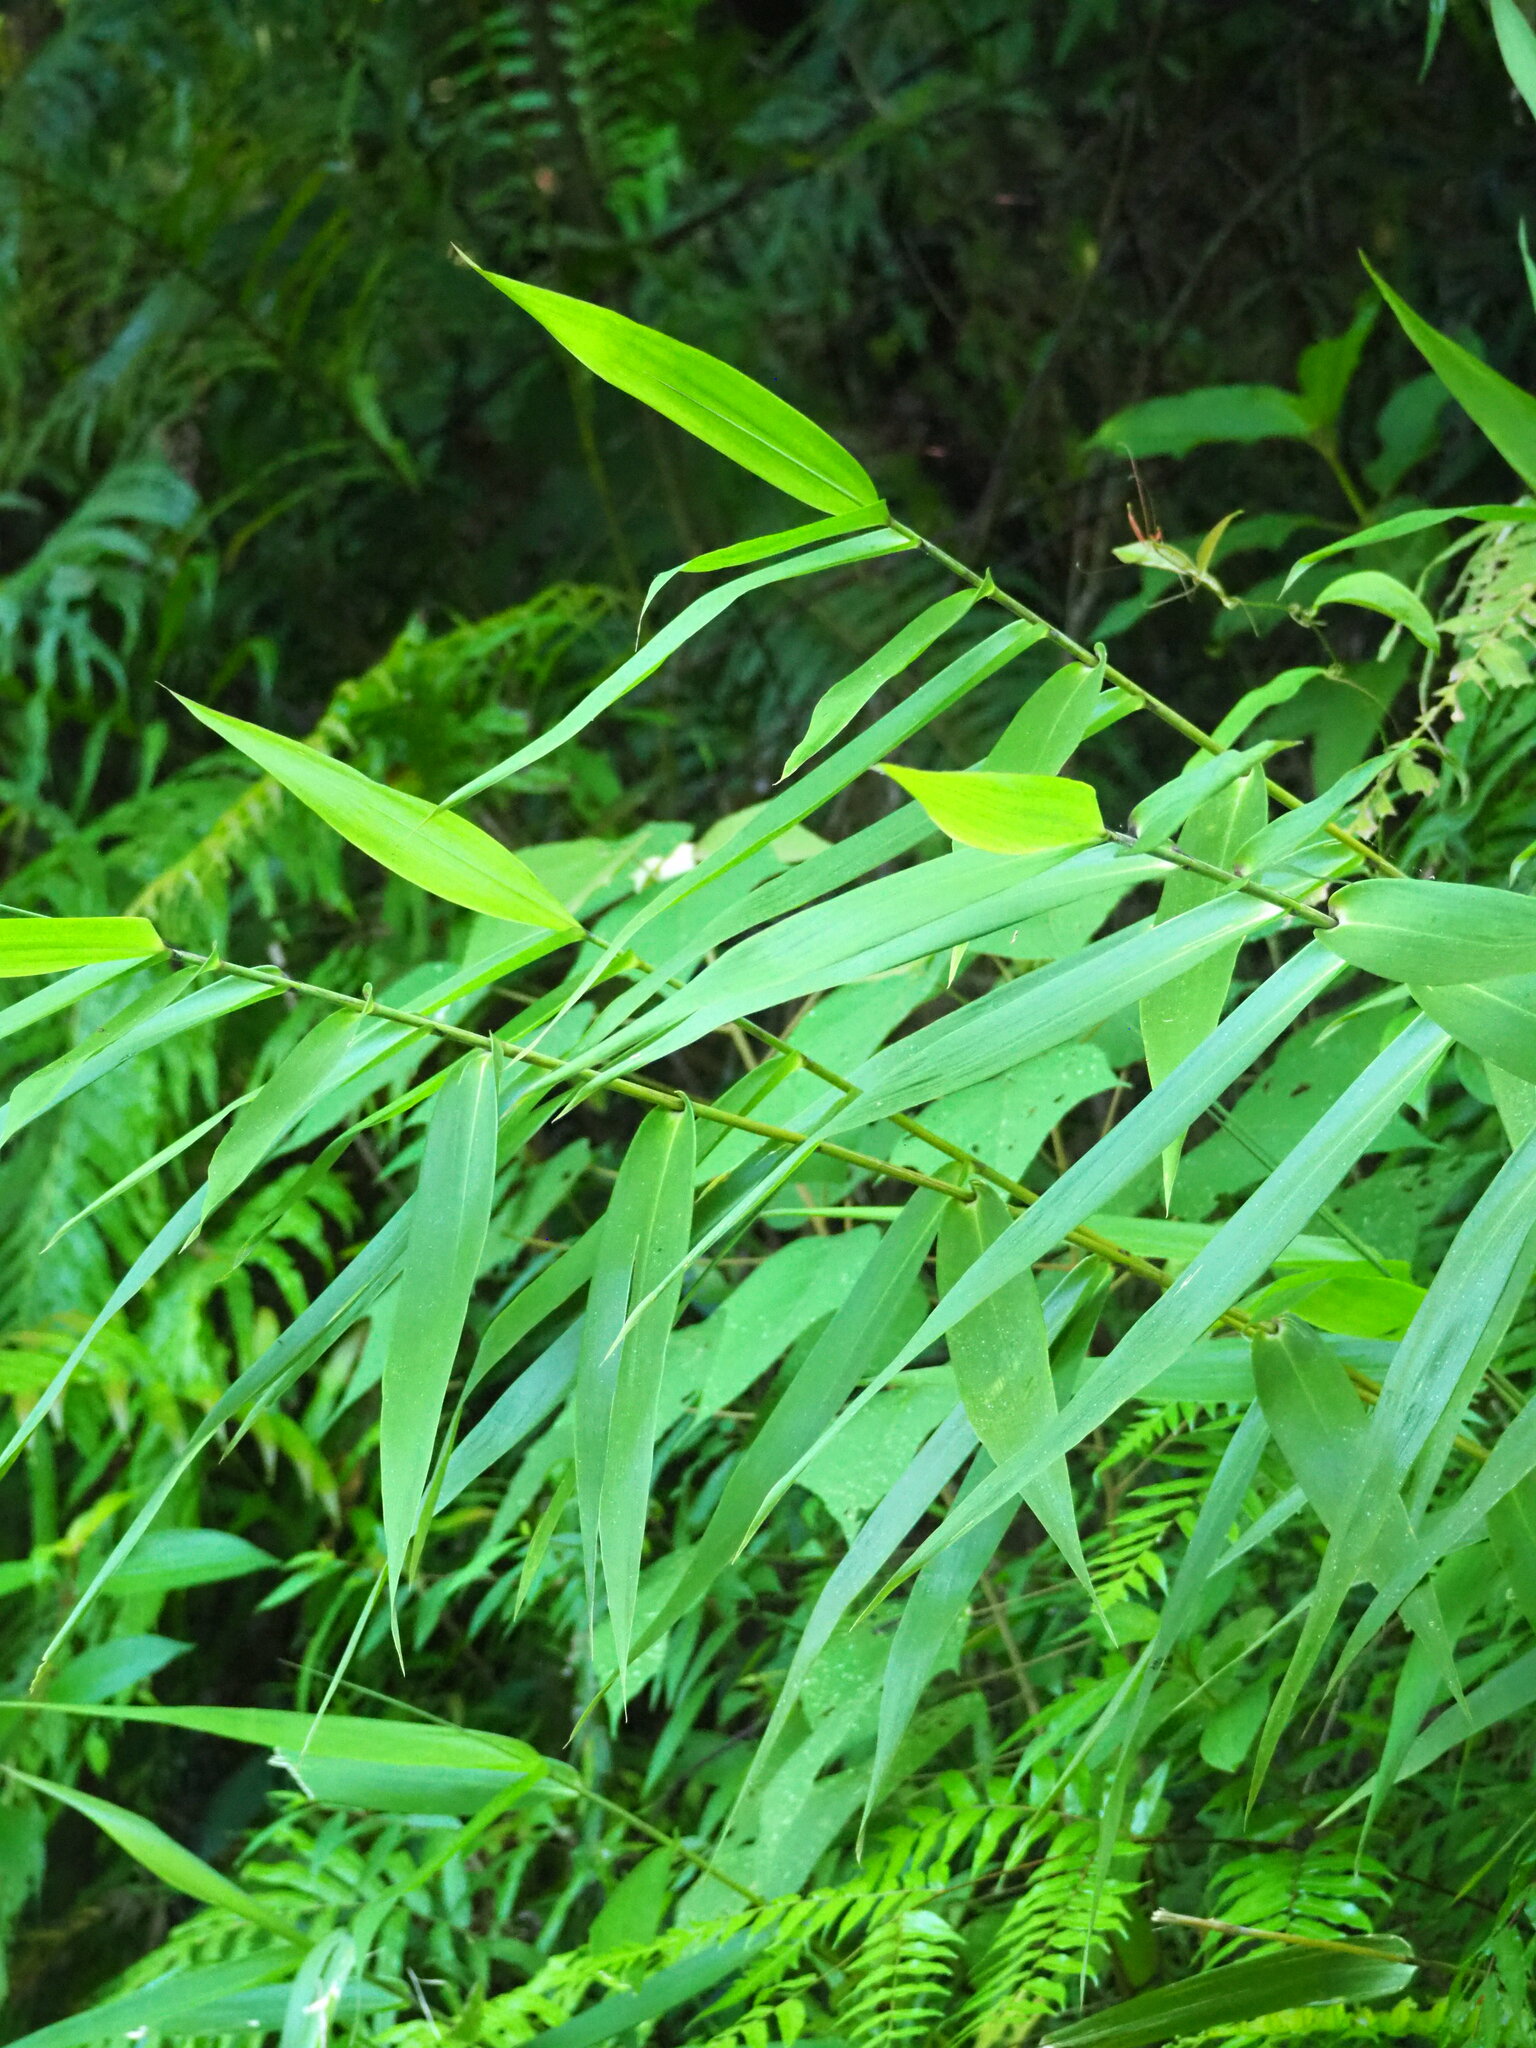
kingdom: Plantae
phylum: Tracheophyta
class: Liliopsida
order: Poales
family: Poaceae
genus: Thysanolaena
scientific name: Thysanolaena latifolia
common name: Tiger grass
